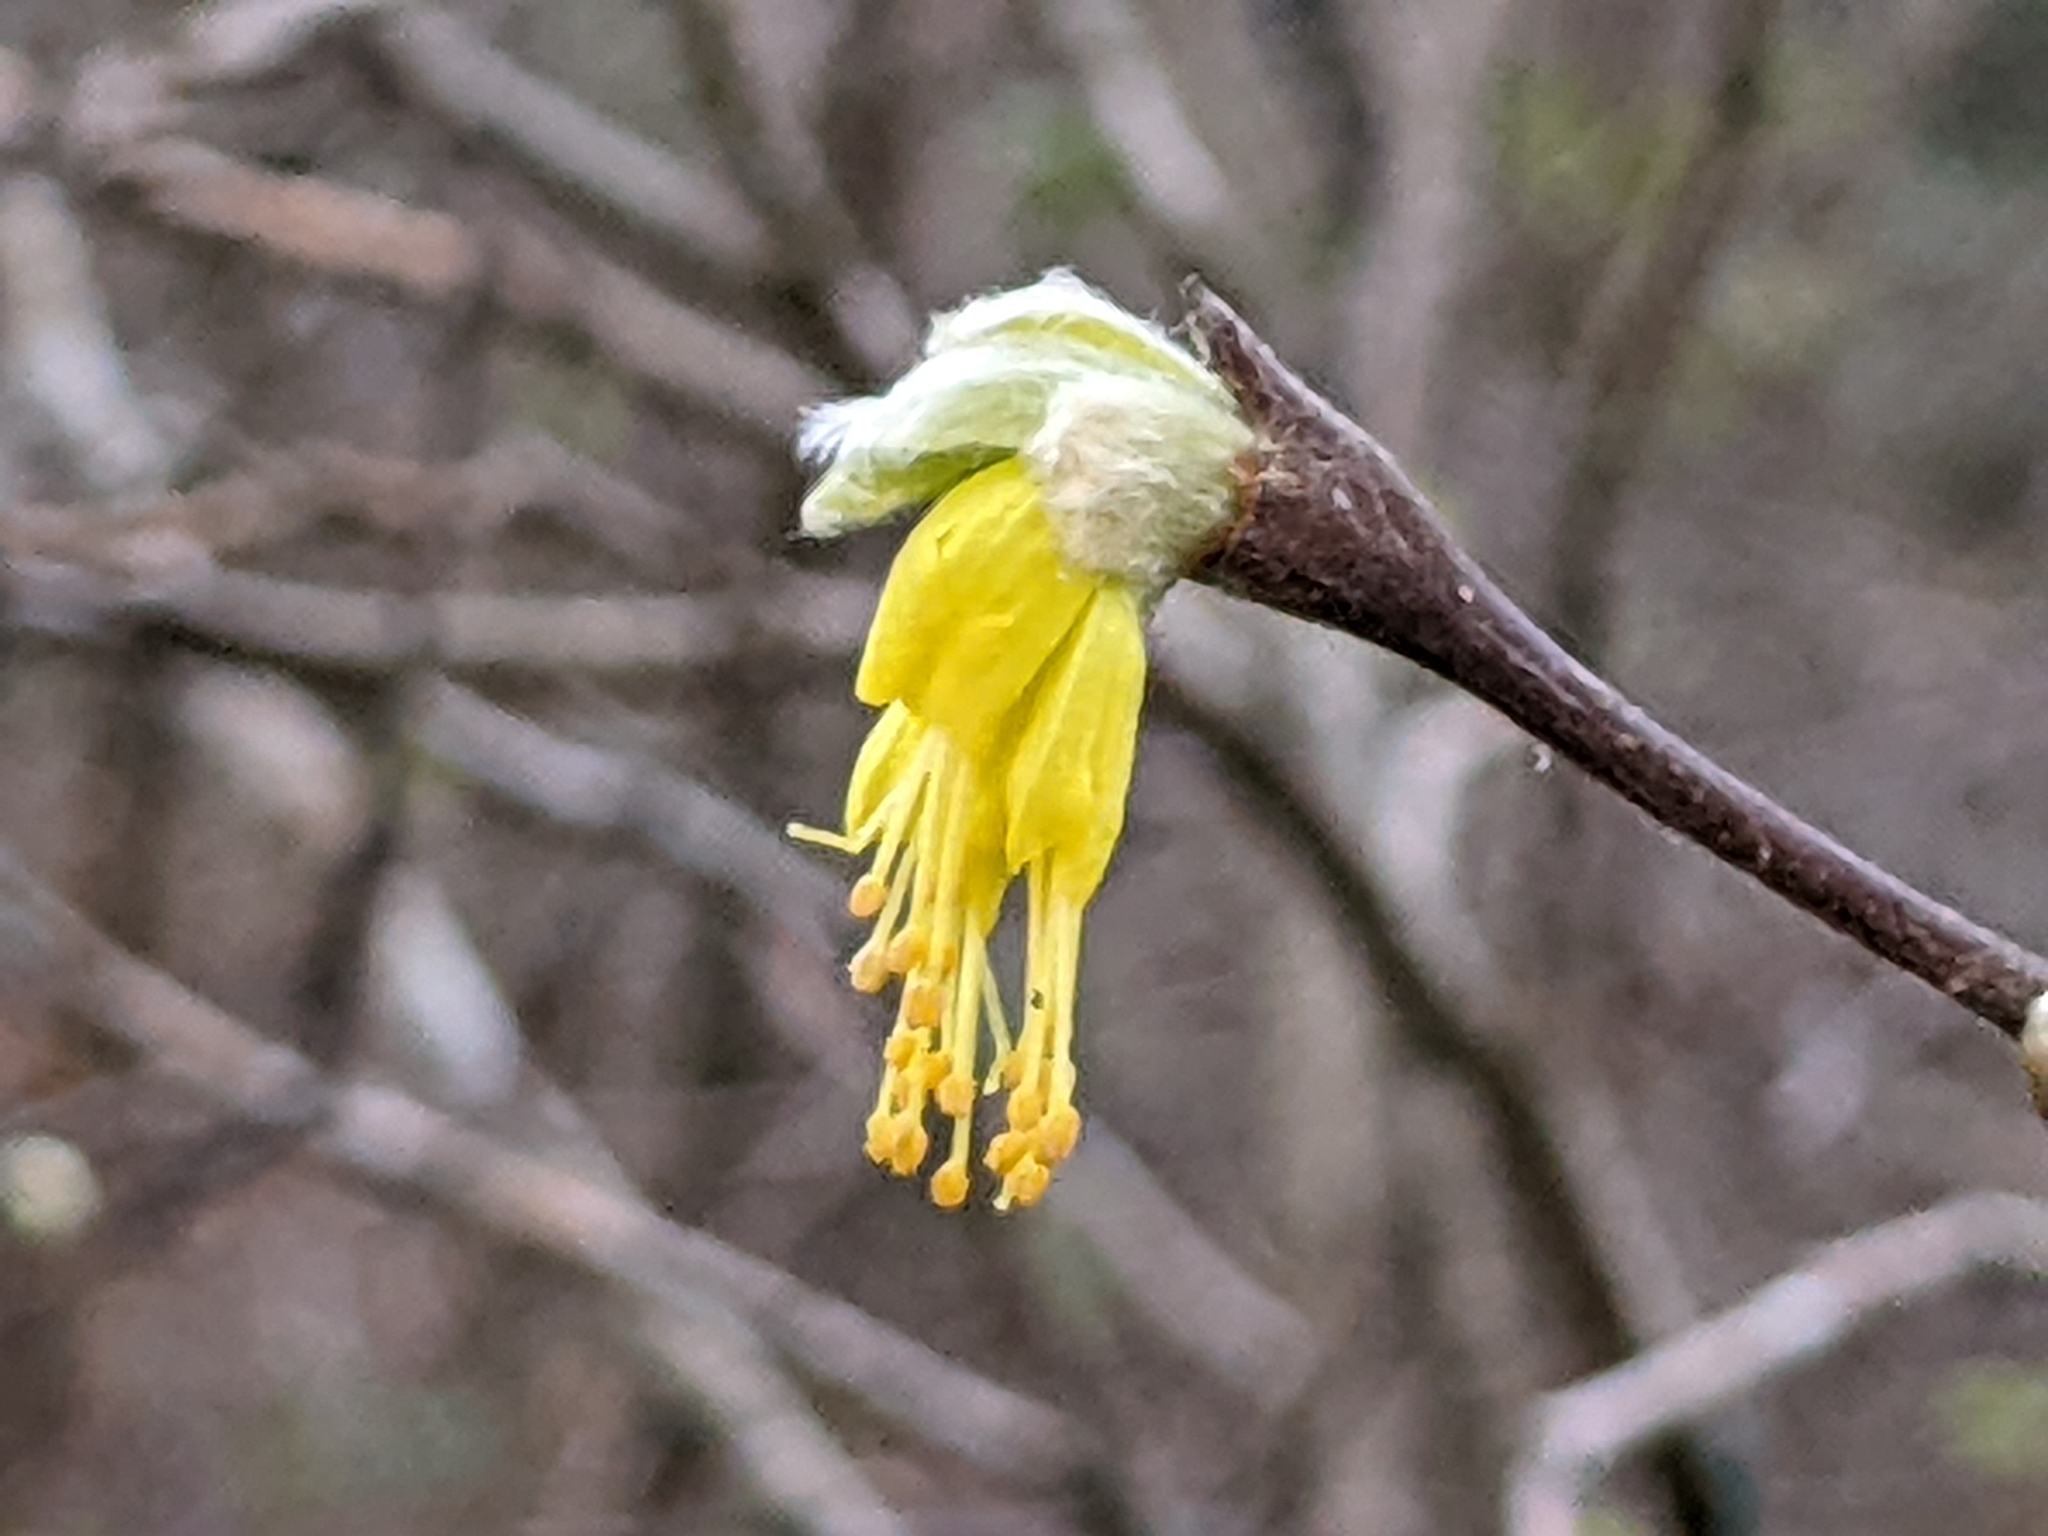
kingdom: Plantae
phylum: Tracheophyta
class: Magnoliopsida
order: Malvales
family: Thymelaeaceae
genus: Dirca
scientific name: Dirca occidentalis
